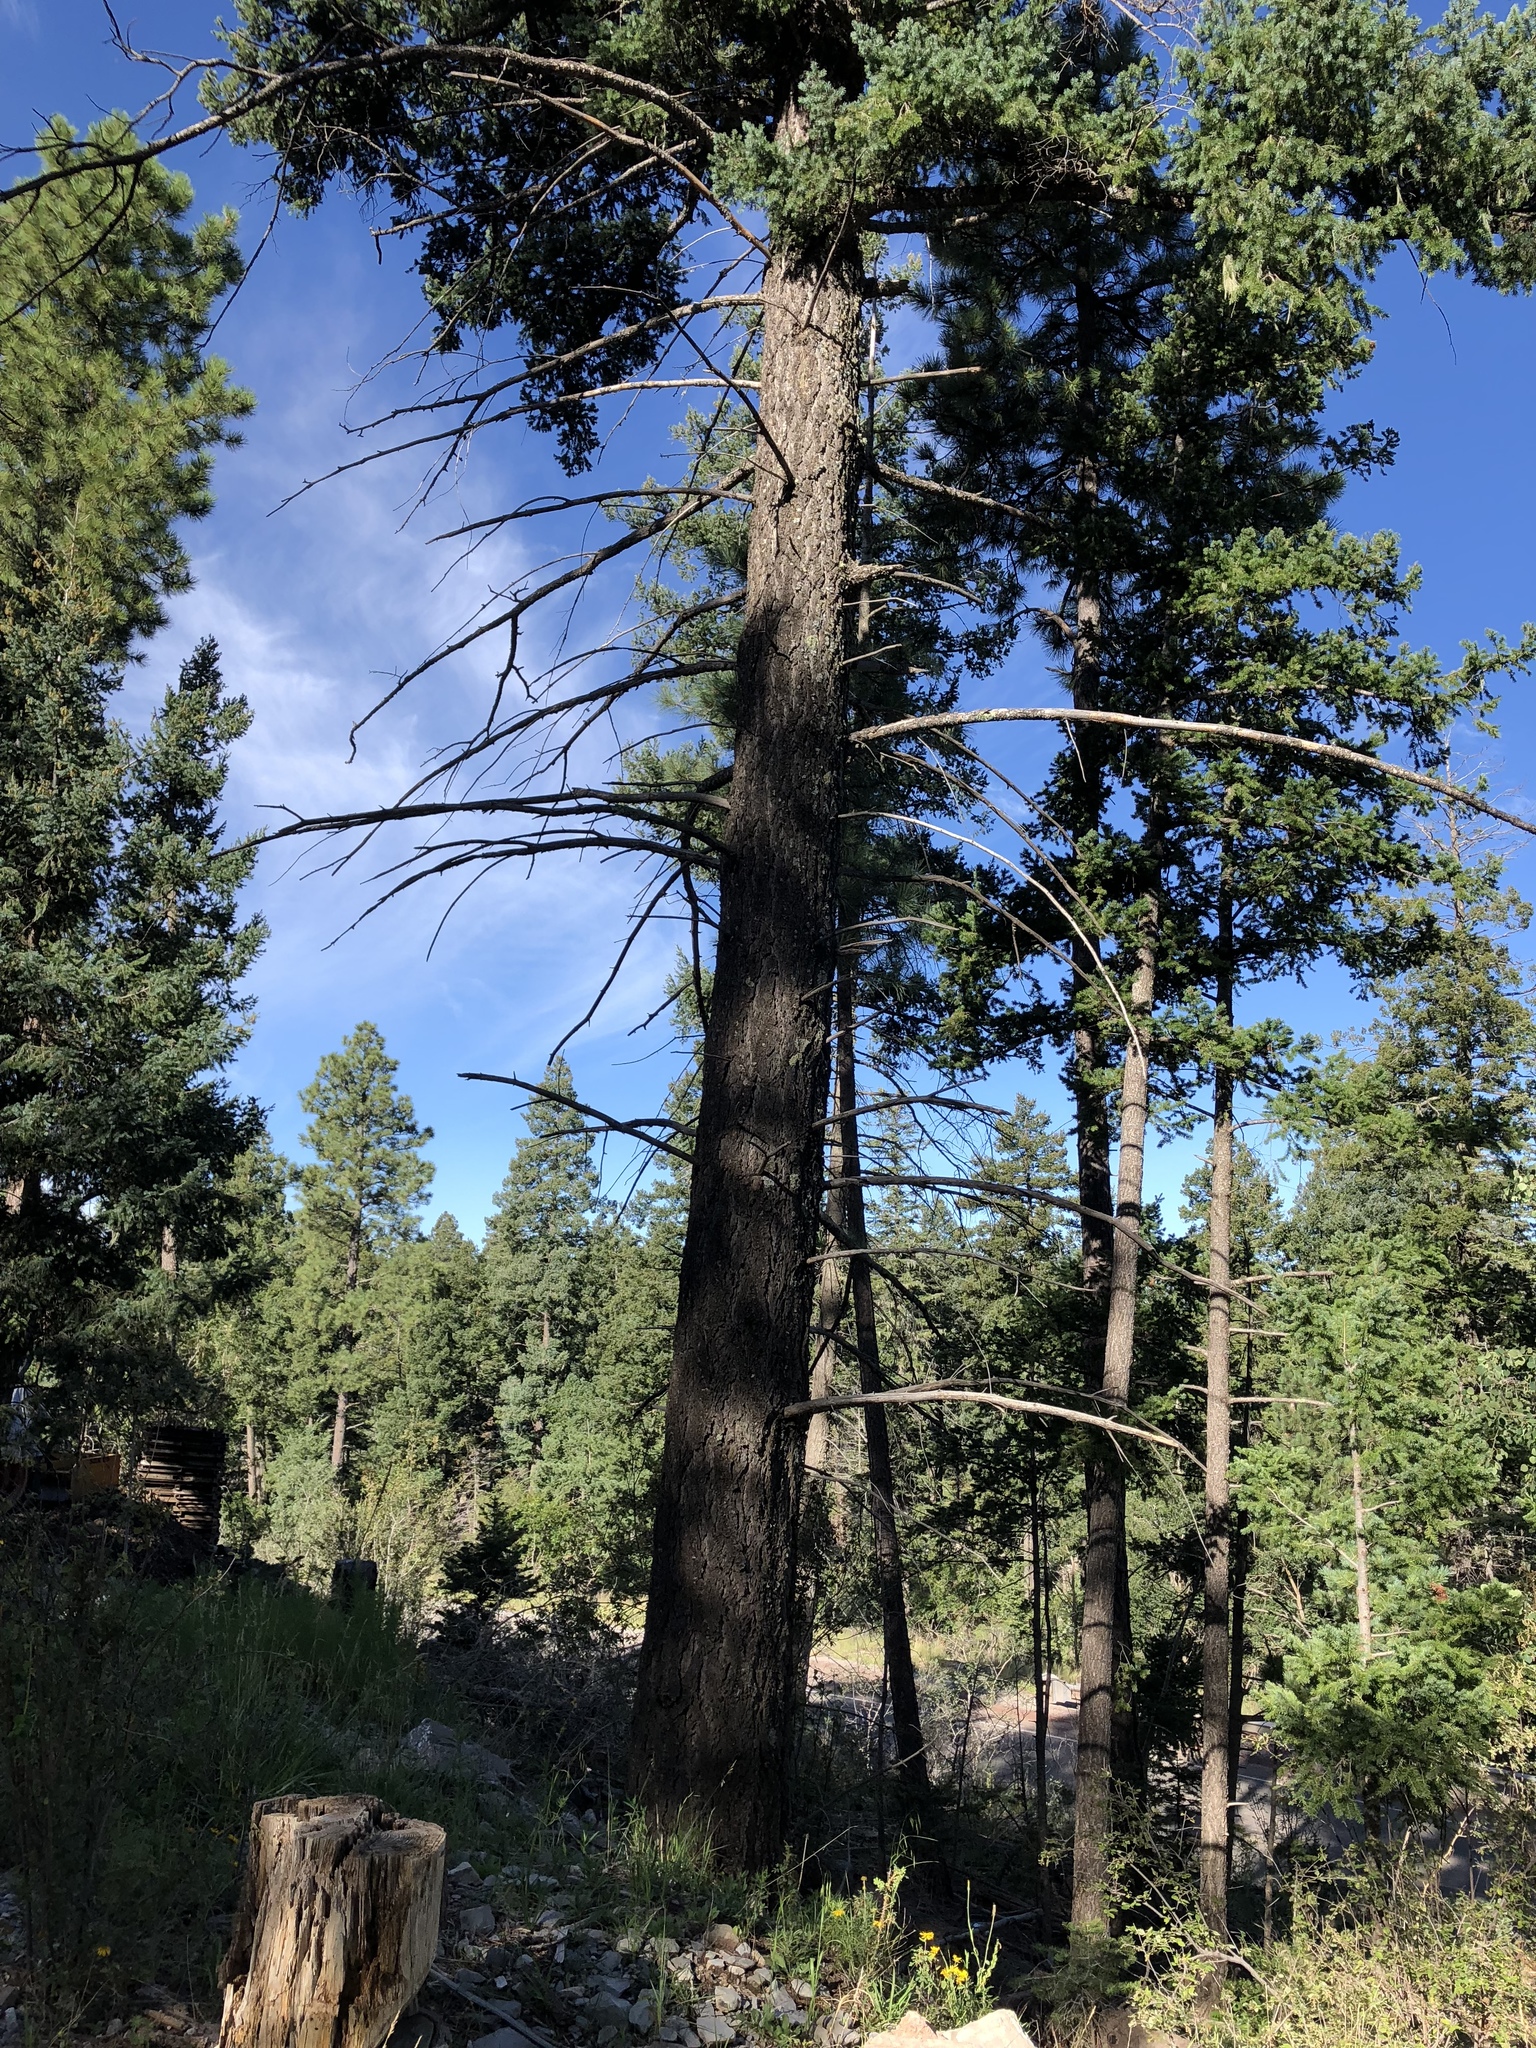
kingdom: Plantae
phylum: Tracheophyta
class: Pinopsida
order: Pinales
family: Pinaceae
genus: Pinus
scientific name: Pinus ponderosa
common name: Western yellow-pine
